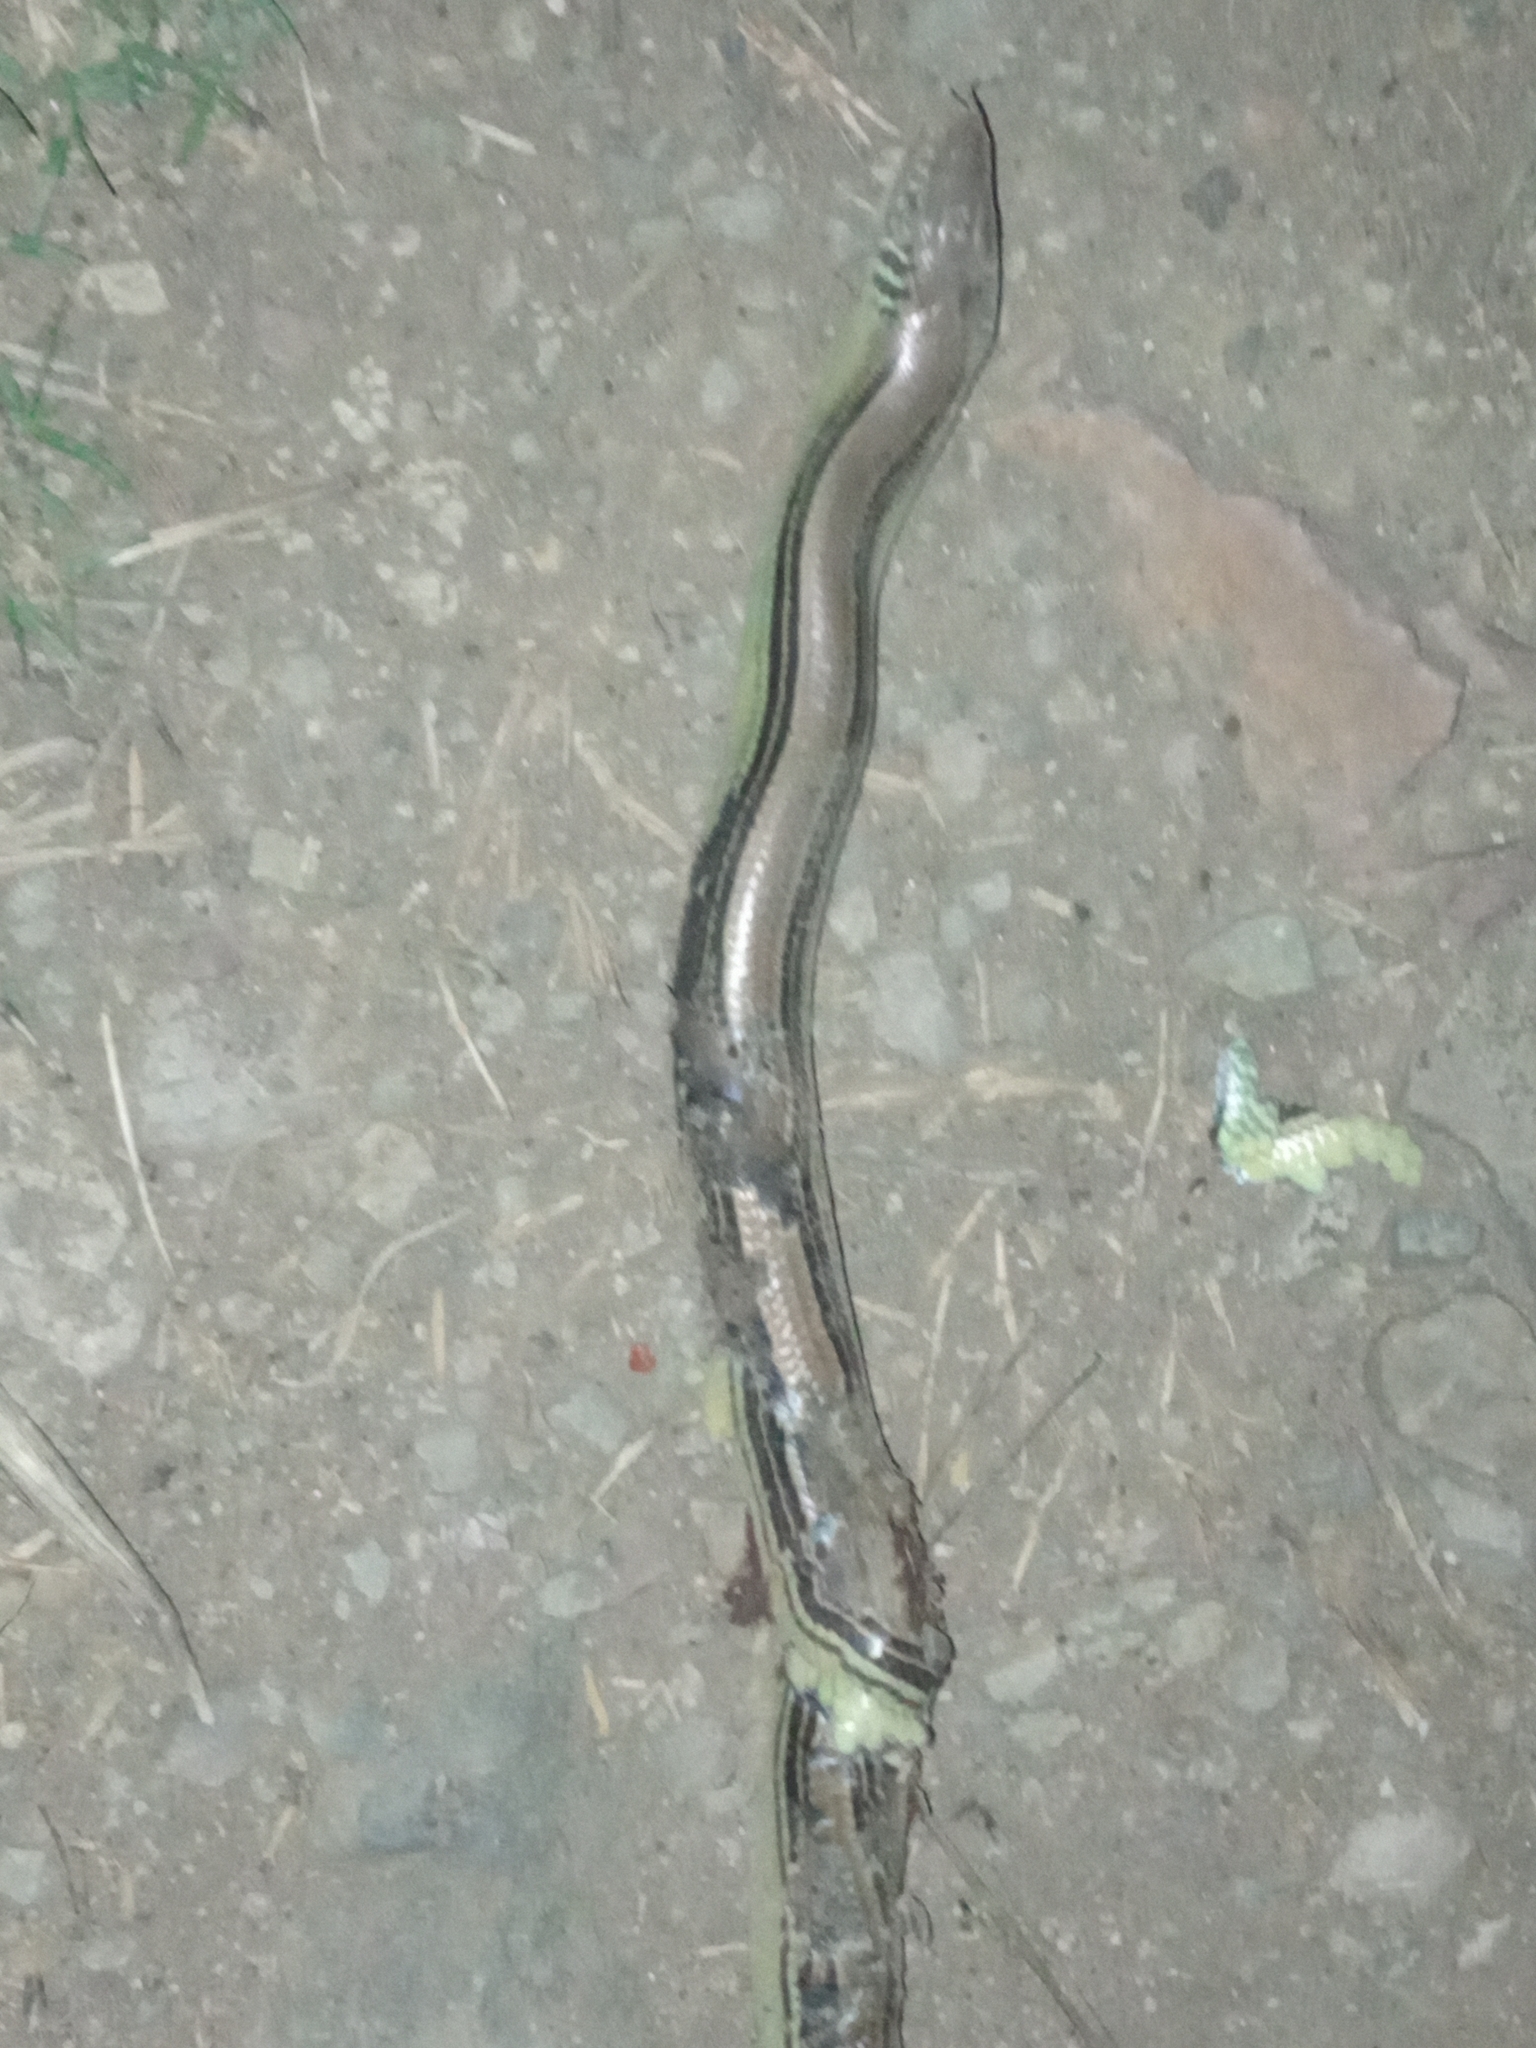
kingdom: Animalia
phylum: Chordata
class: Squamata
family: Diploglossidae
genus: Ophiodes
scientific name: Ophiodes striatus
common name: Striped worm lizard
